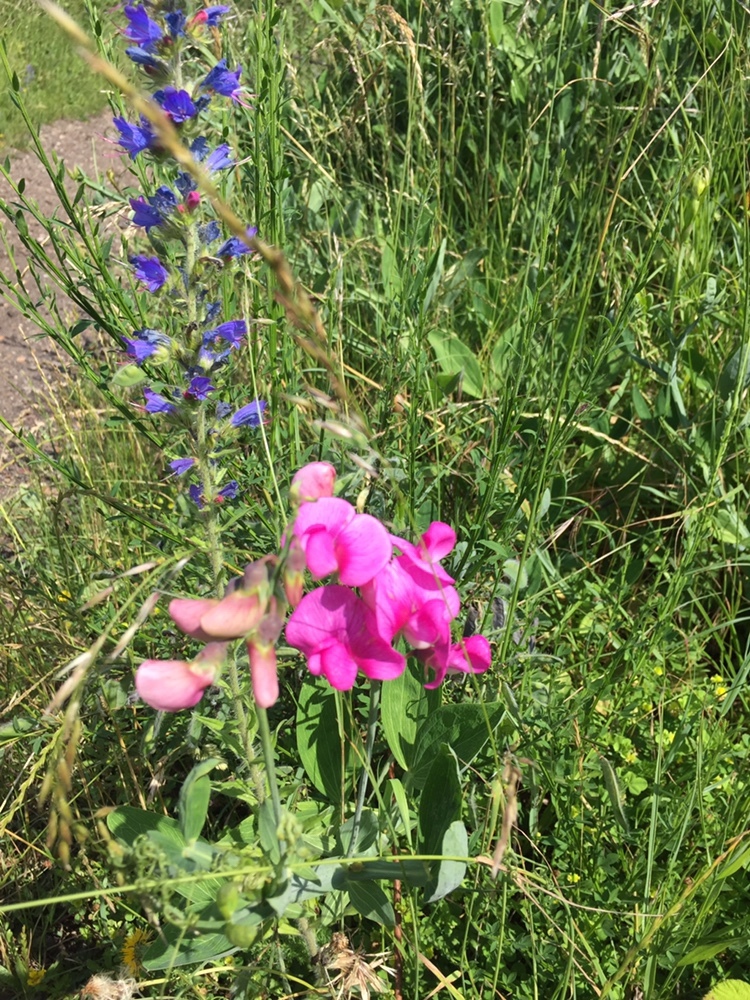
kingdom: Plantae
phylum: Tracheophyta
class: Magnoliopsida
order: Fabales
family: Fabaceae
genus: Lathyrus
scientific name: Lathyrus latifolius
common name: Perennial pea
